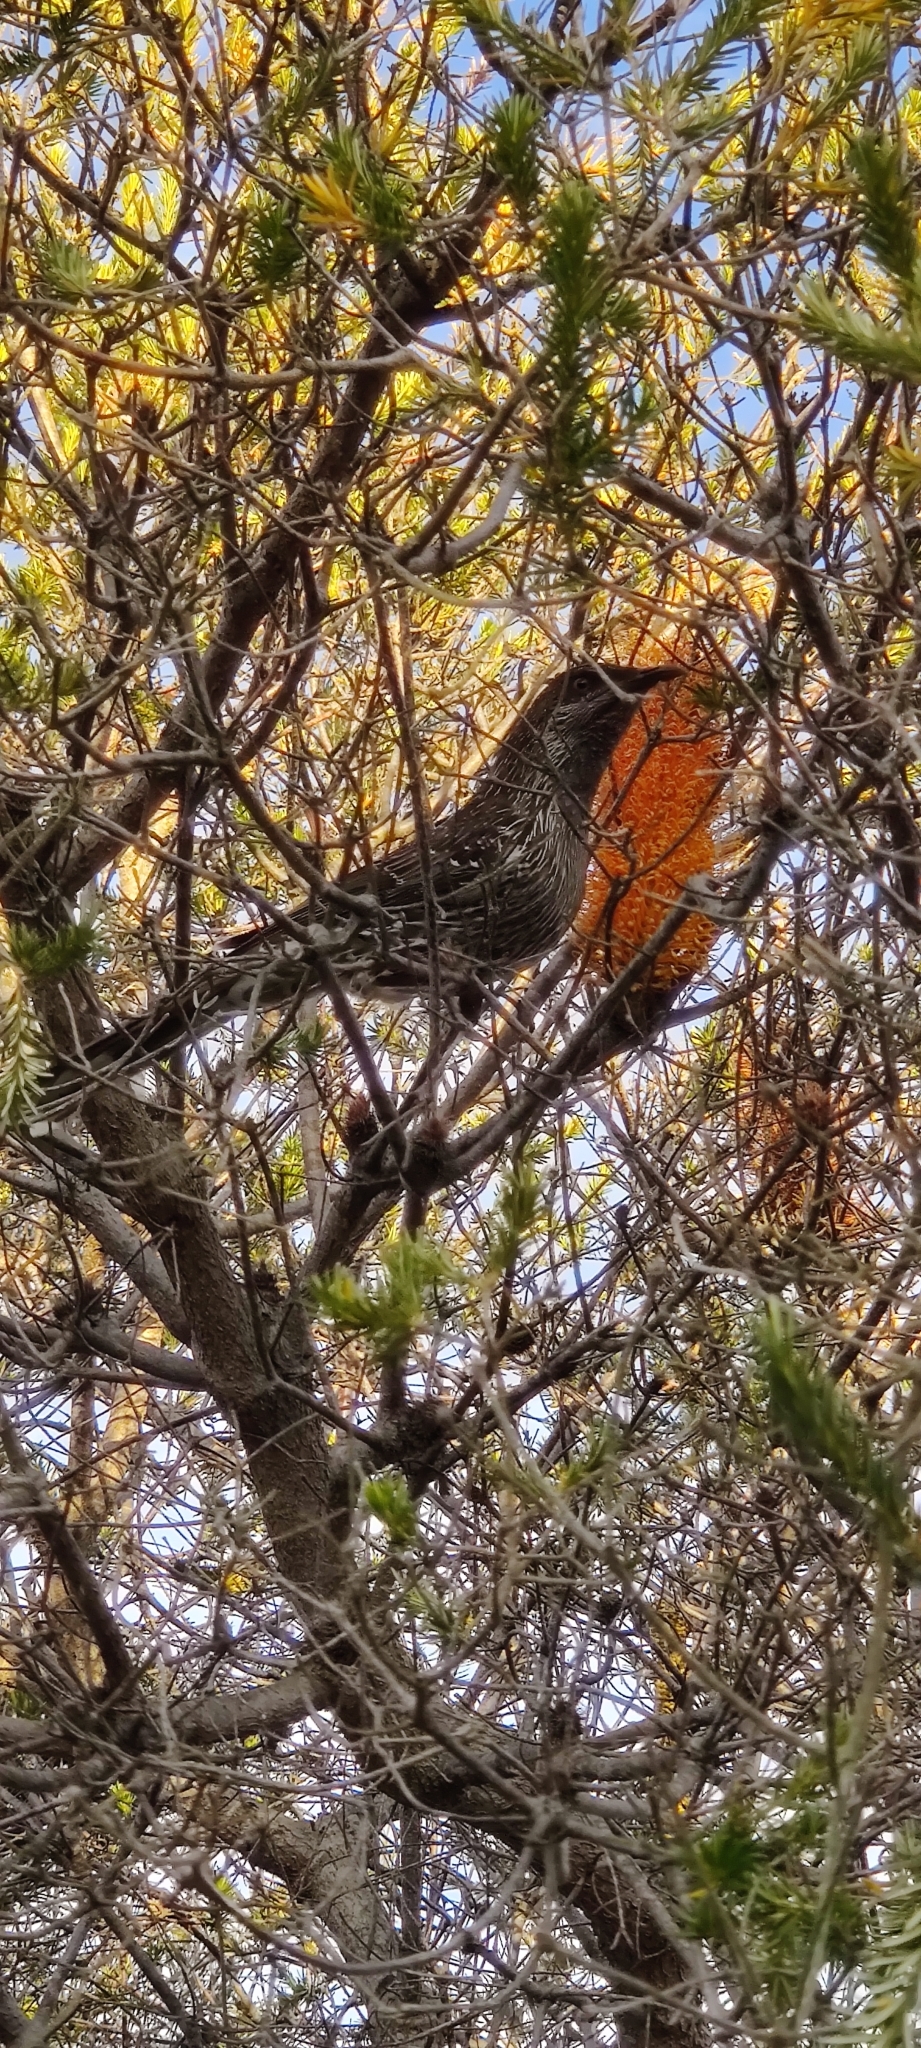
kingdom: Animalia
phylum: Chordata
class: Aves
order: Passeriformes
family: Meliphagidae
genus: Anthochaera
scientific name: Anthochaera chrysoptera
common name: Little wattlebird
